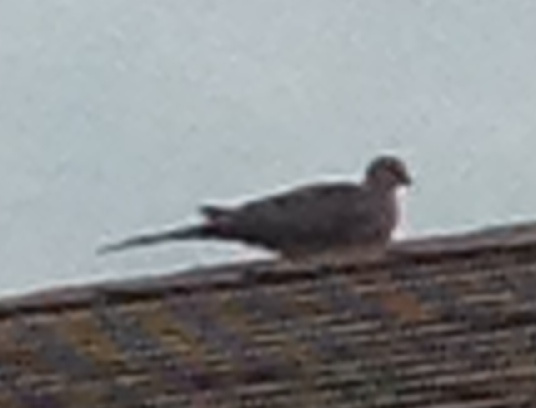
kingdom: Animalia
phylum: Chordata
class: Aves
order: Columbiformes
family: Columbidae
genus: Zenaida
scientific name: Zenaida macroura
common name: Mourning dove
